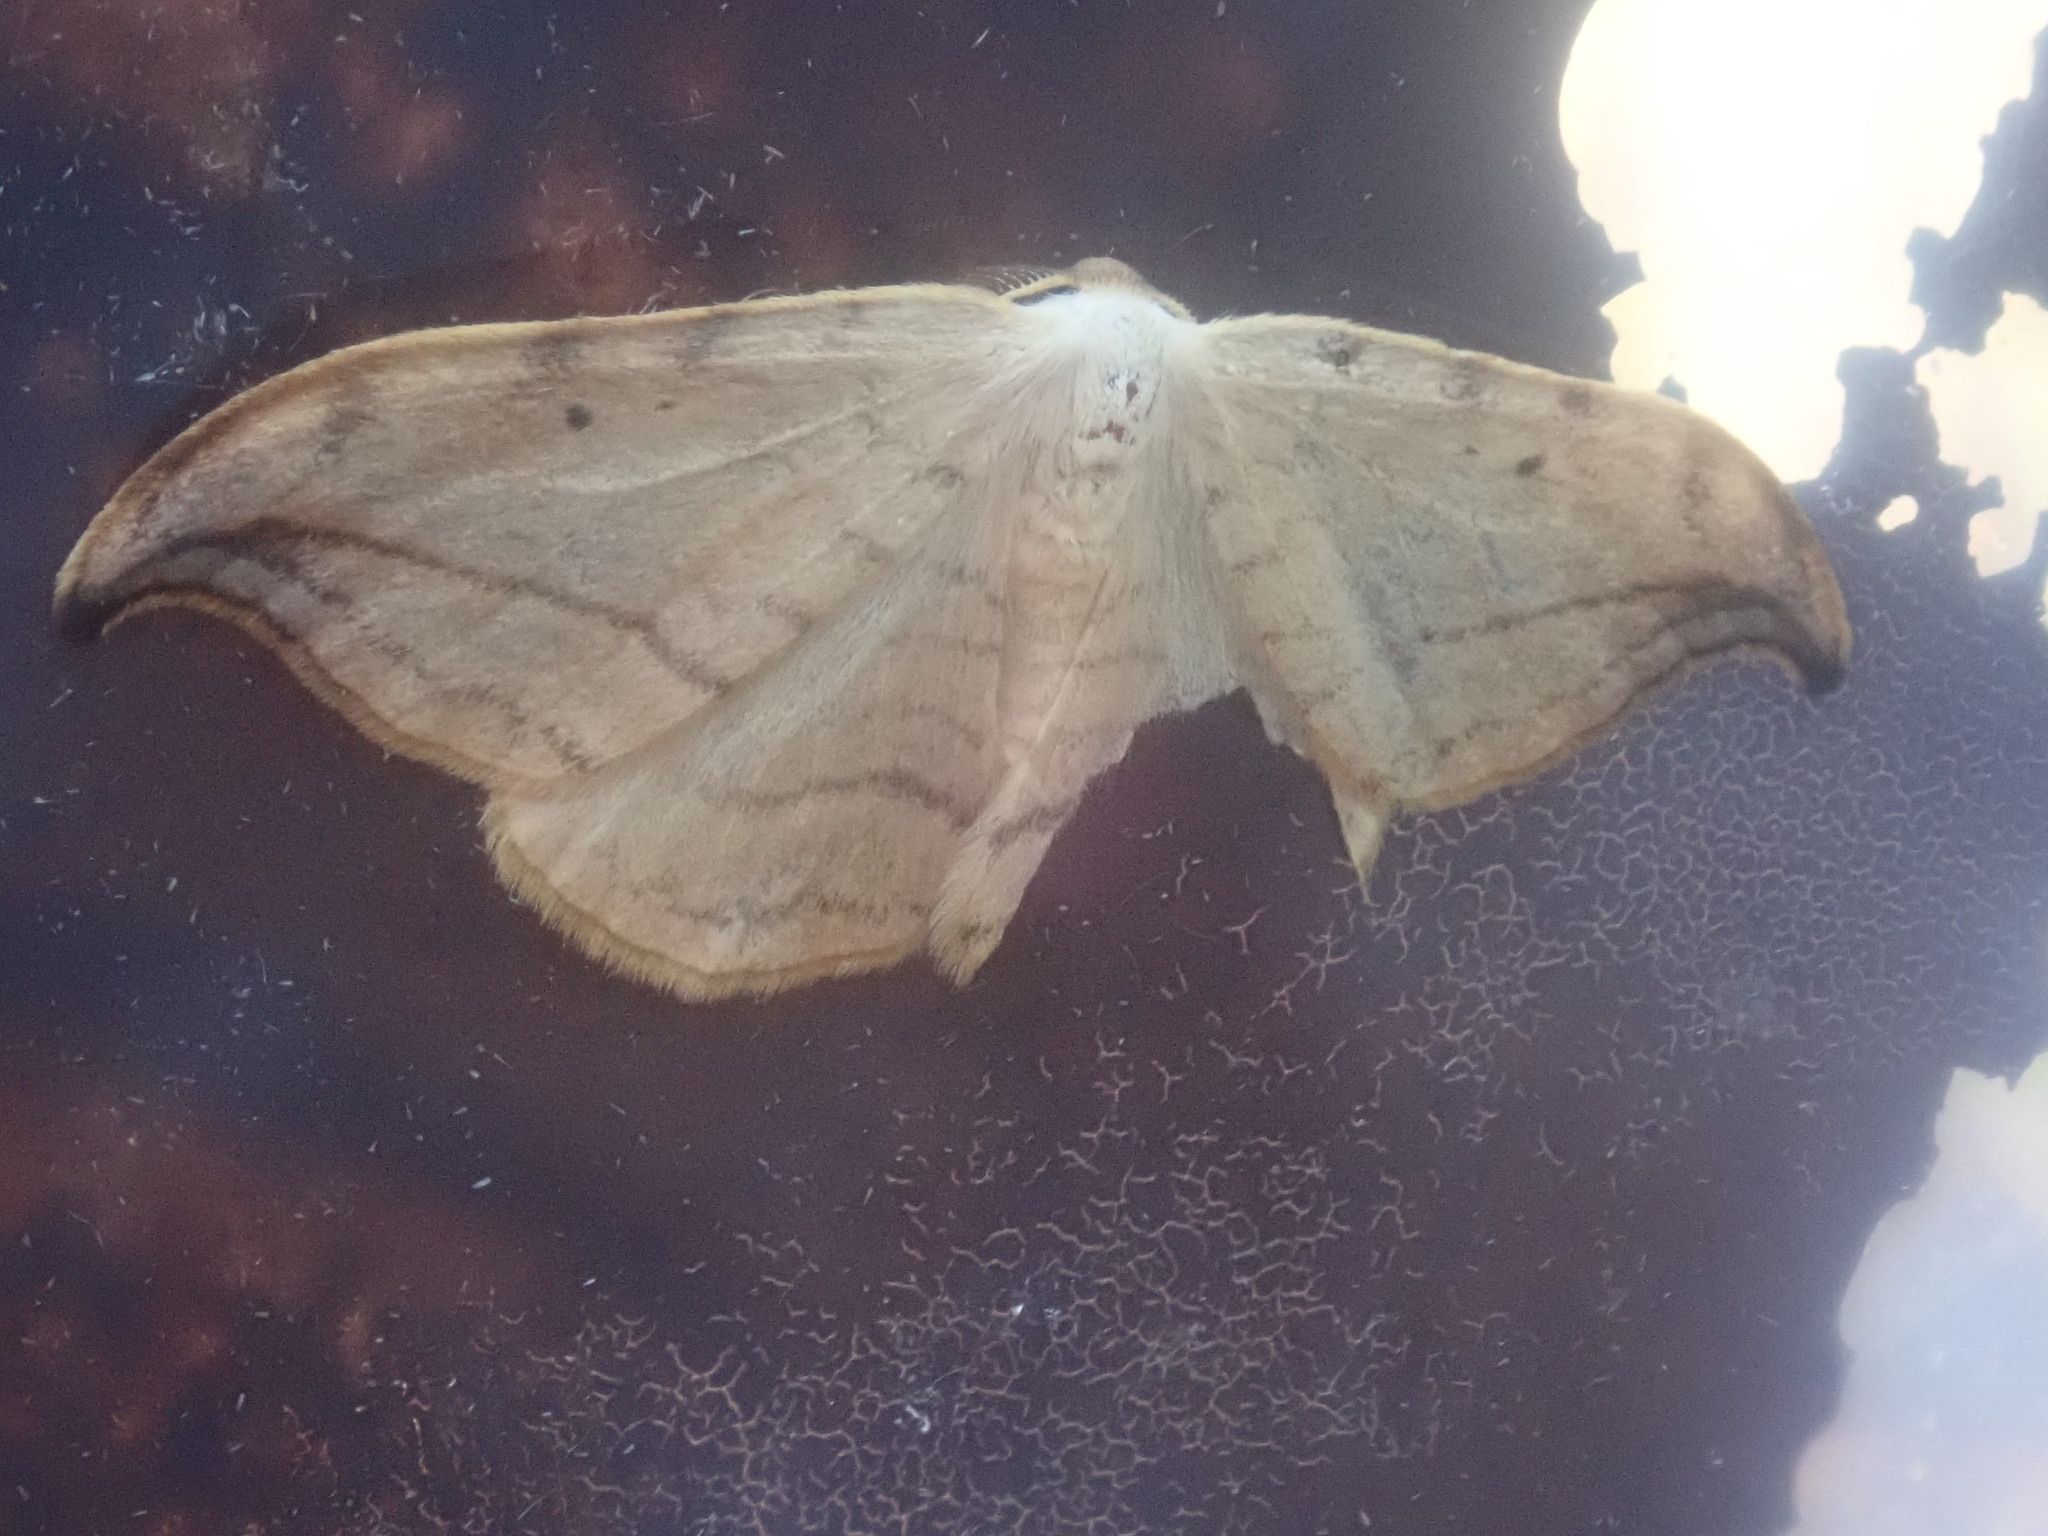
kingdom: Animalia
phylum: Arthropoda
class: Insecta
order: Lepidoptera
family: Drepanidae
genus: Drepana
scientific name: Drepana arcuata
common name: Arched hooktip moth
